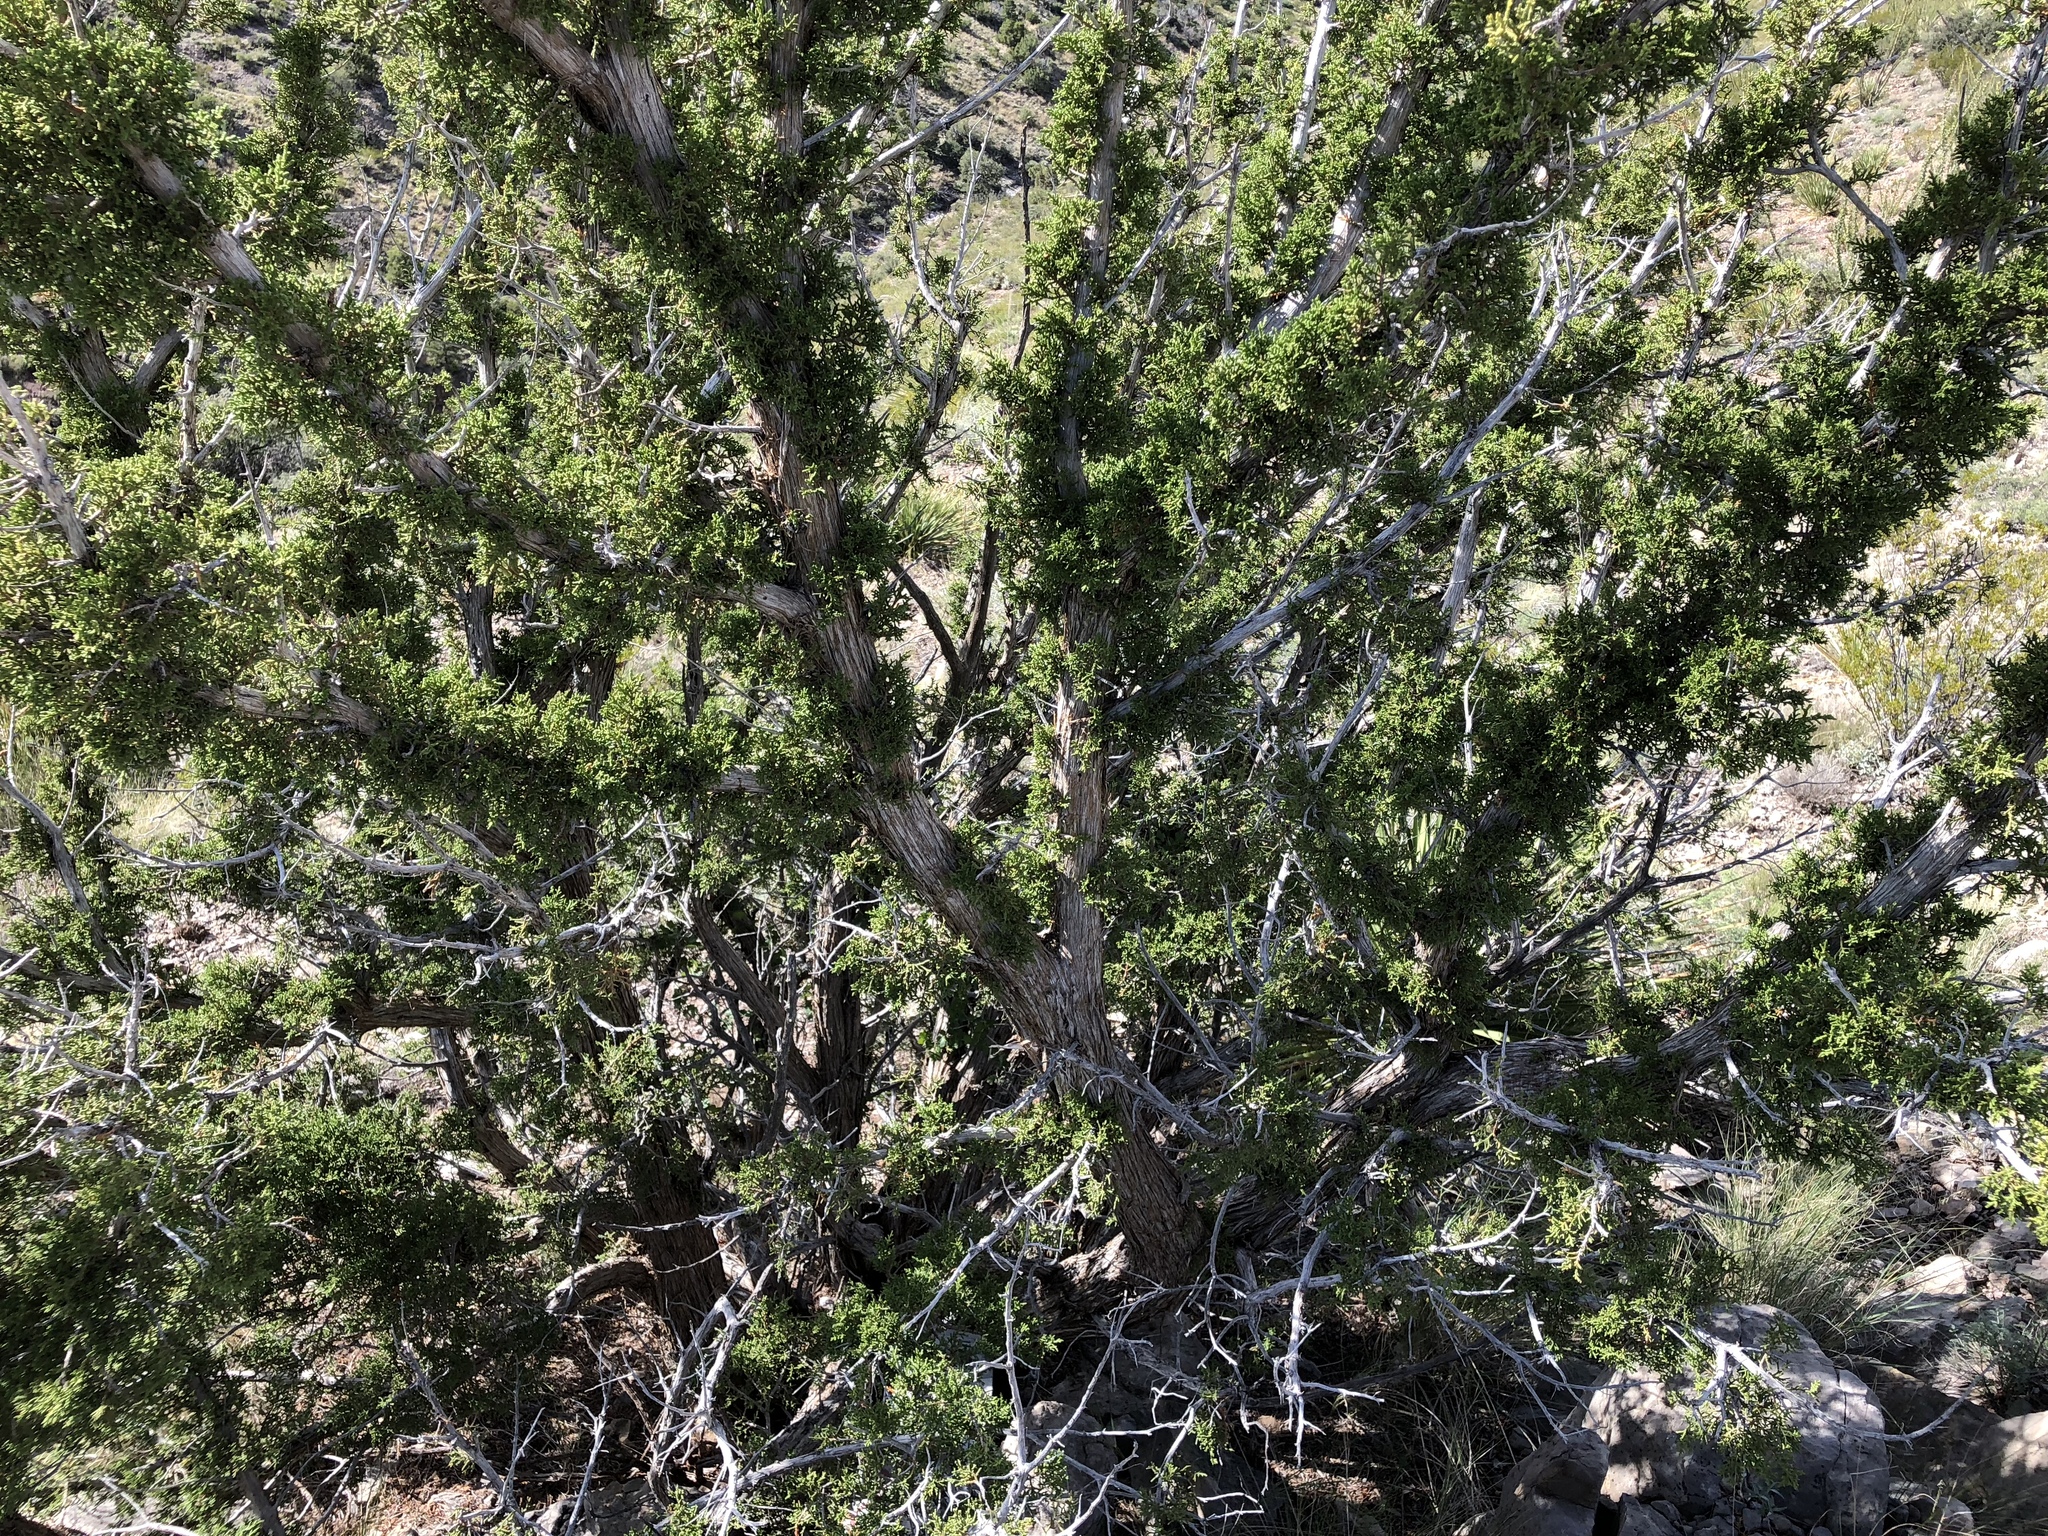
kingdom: Plantae
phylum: Tracheophyta
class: Pinopsida
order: Pinales
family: Cupressaceae
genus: Juniperus
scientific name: Juniperus monosperma
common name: One-seed juniper
